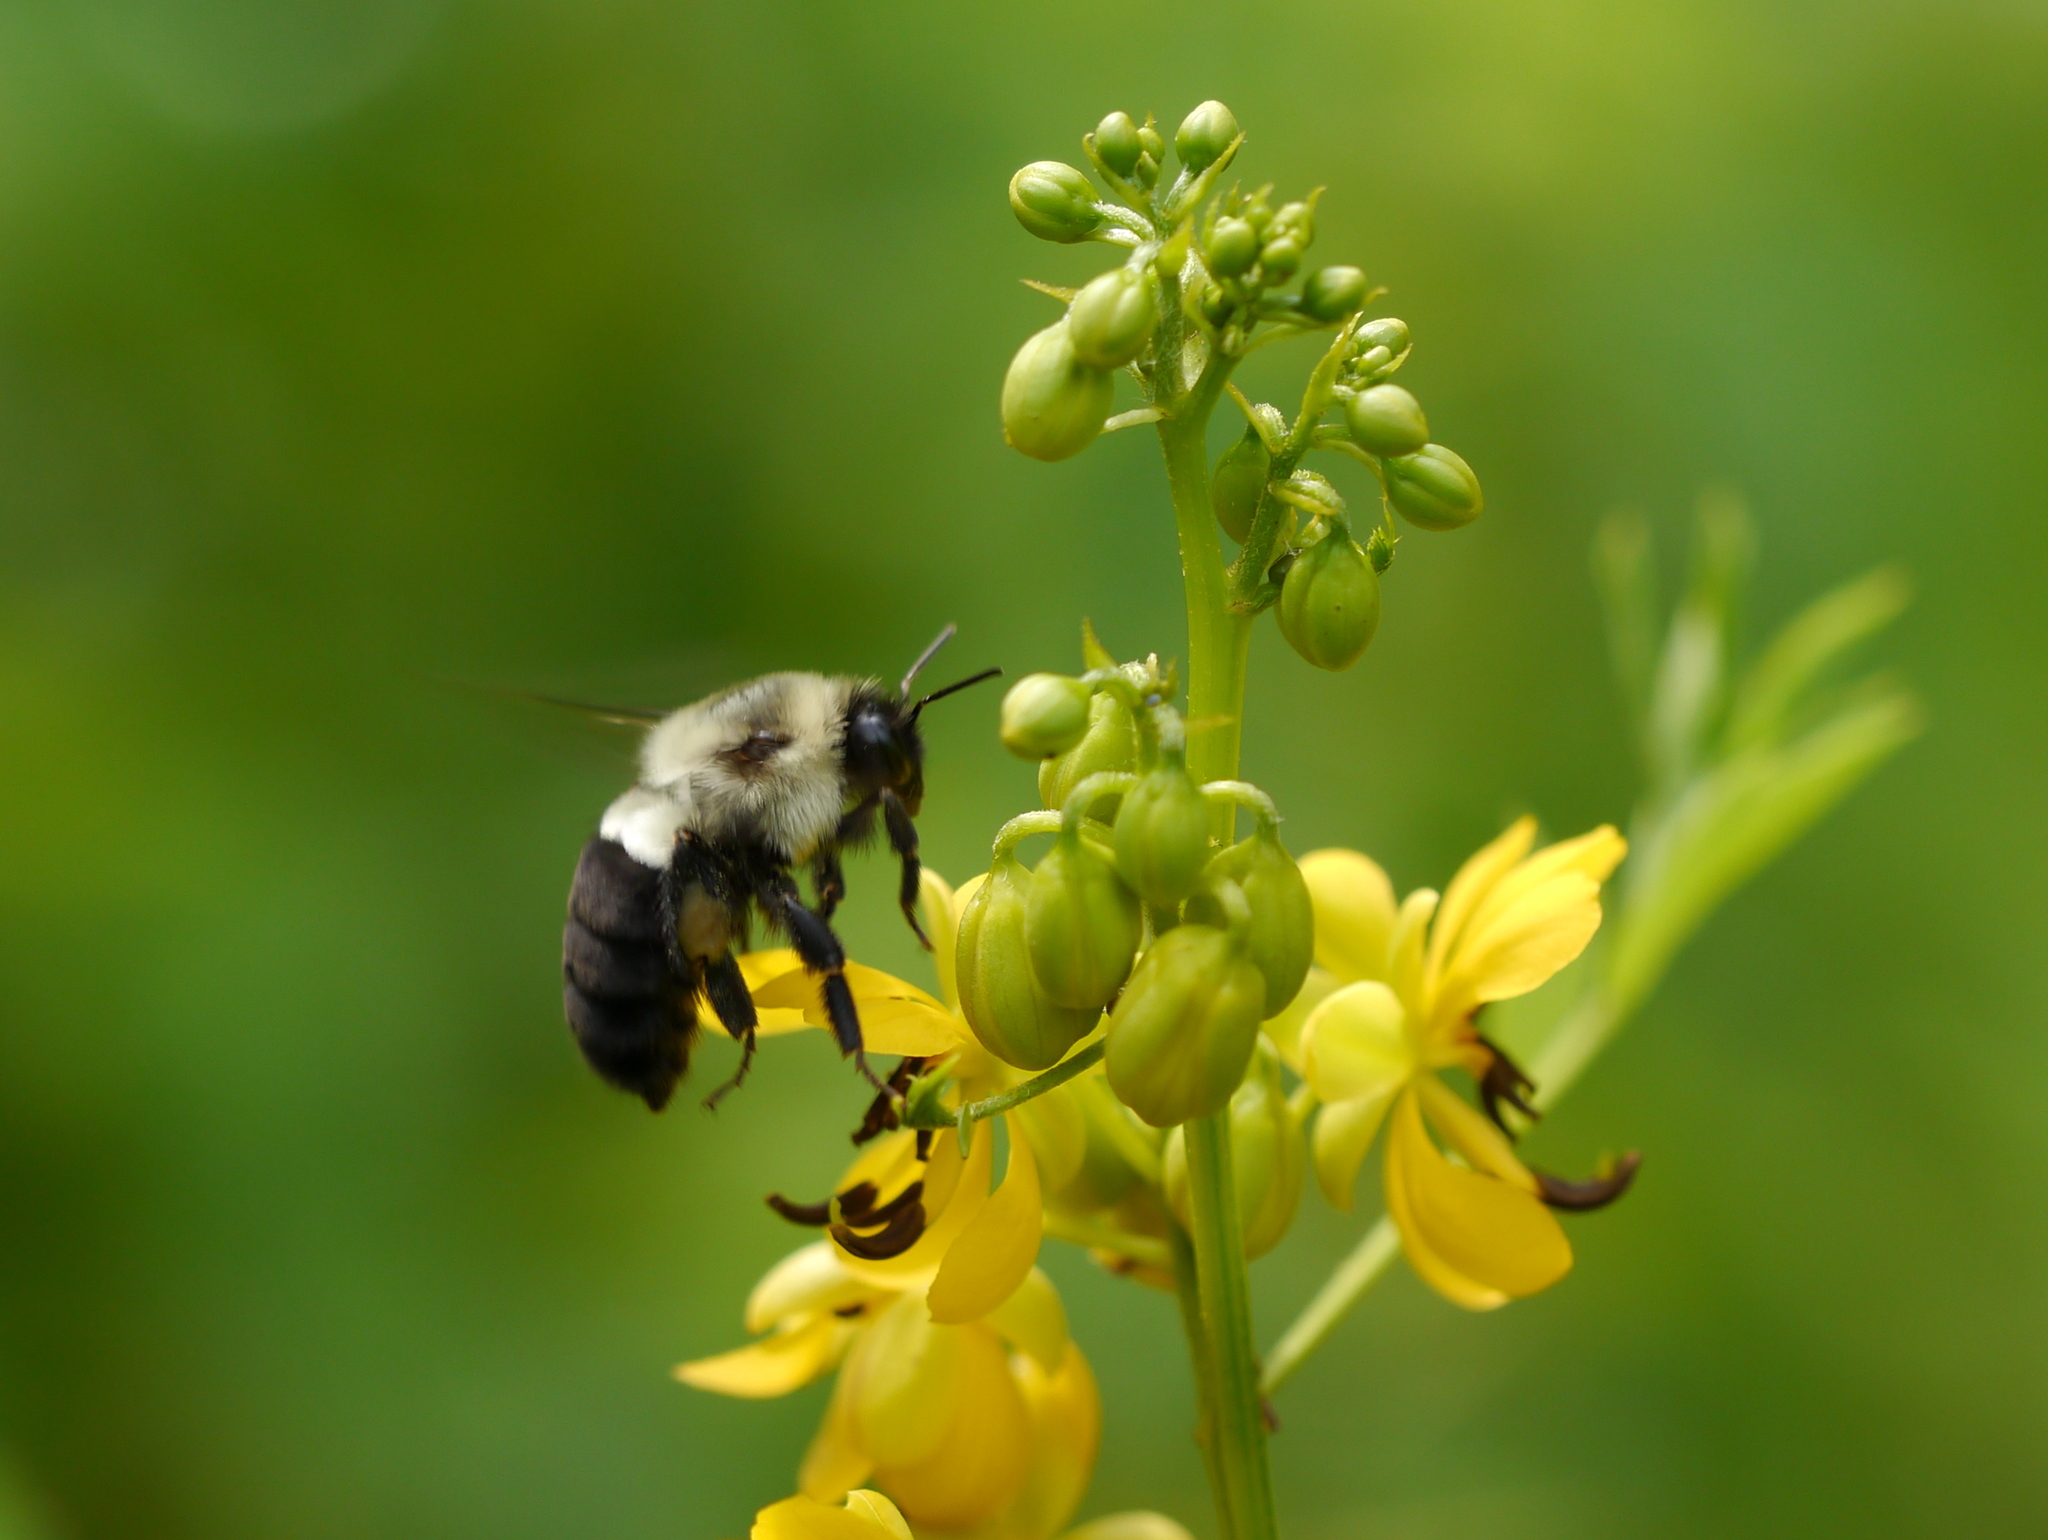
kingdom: Animalia
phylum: Arthropoda
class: Insecta
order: Hymenoptera
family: Apidae
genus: Bombus
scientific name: Bombus impatiens
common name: Common eastern bumble bee
